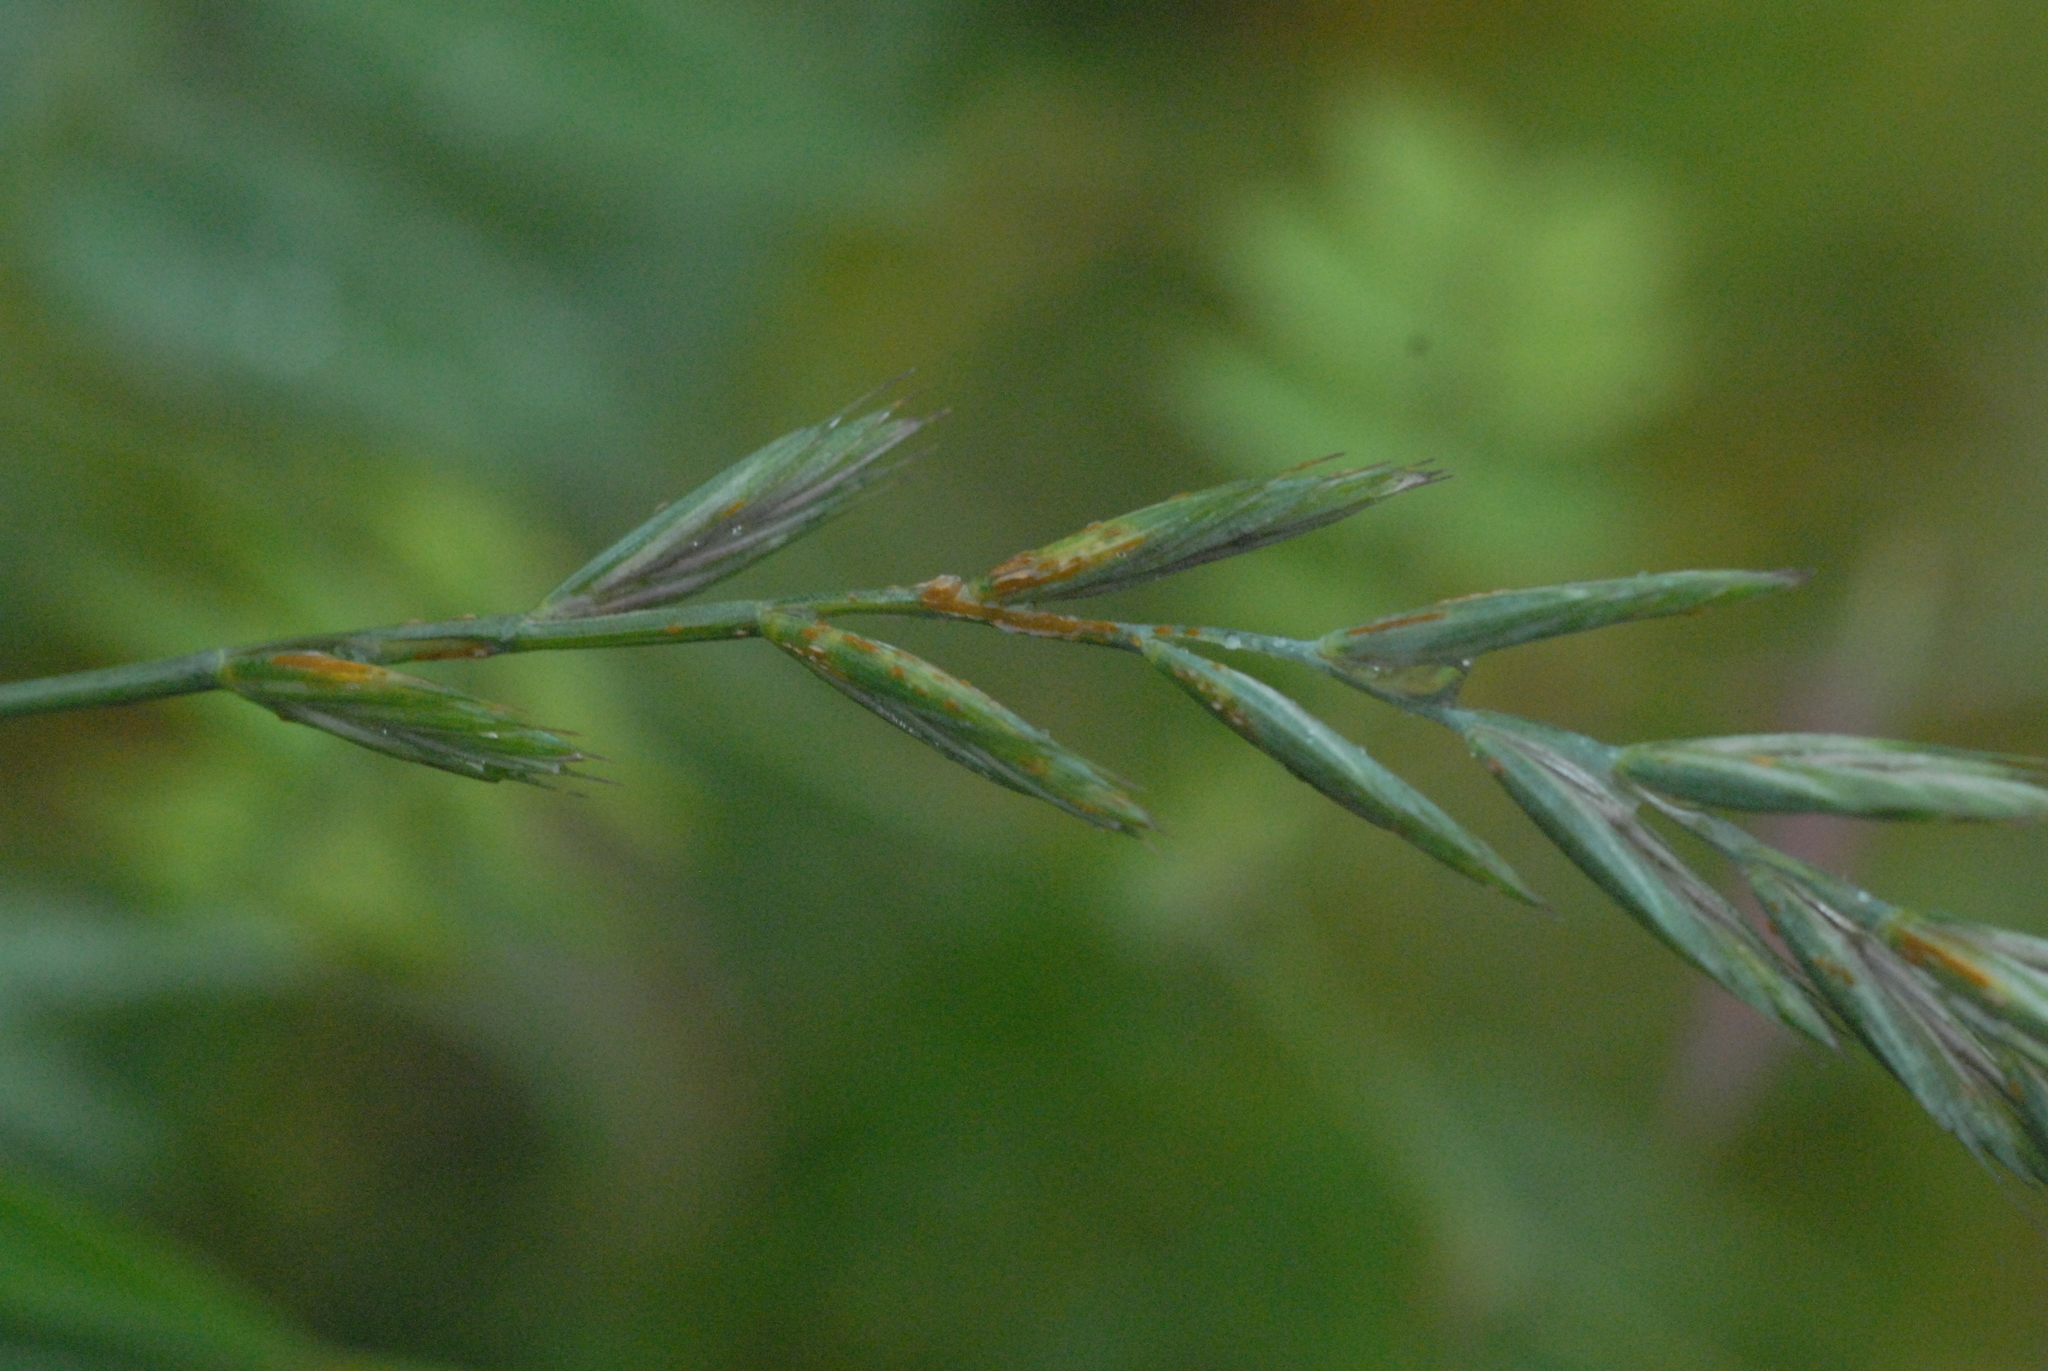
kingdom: Plantae
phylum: Tracheophyta
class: Liliopsida
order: Poales
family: Poaceae
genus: Lolium
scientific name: Lolium perenne
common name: Perennial ryegrass
